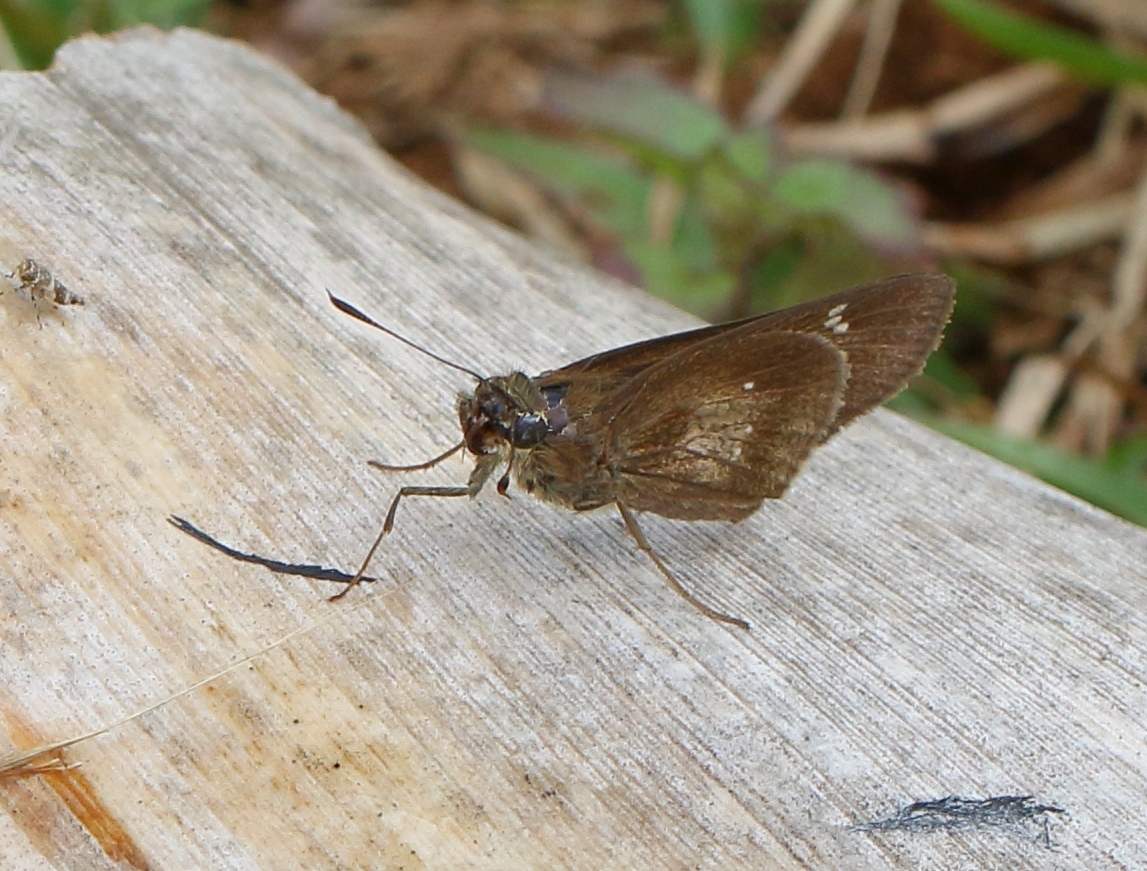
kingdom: Animalia
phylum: Arthropoda
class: Insecta
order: Lepidoptera
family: Hesperiidae
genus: Baoris
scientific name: Baoris fatuellus
